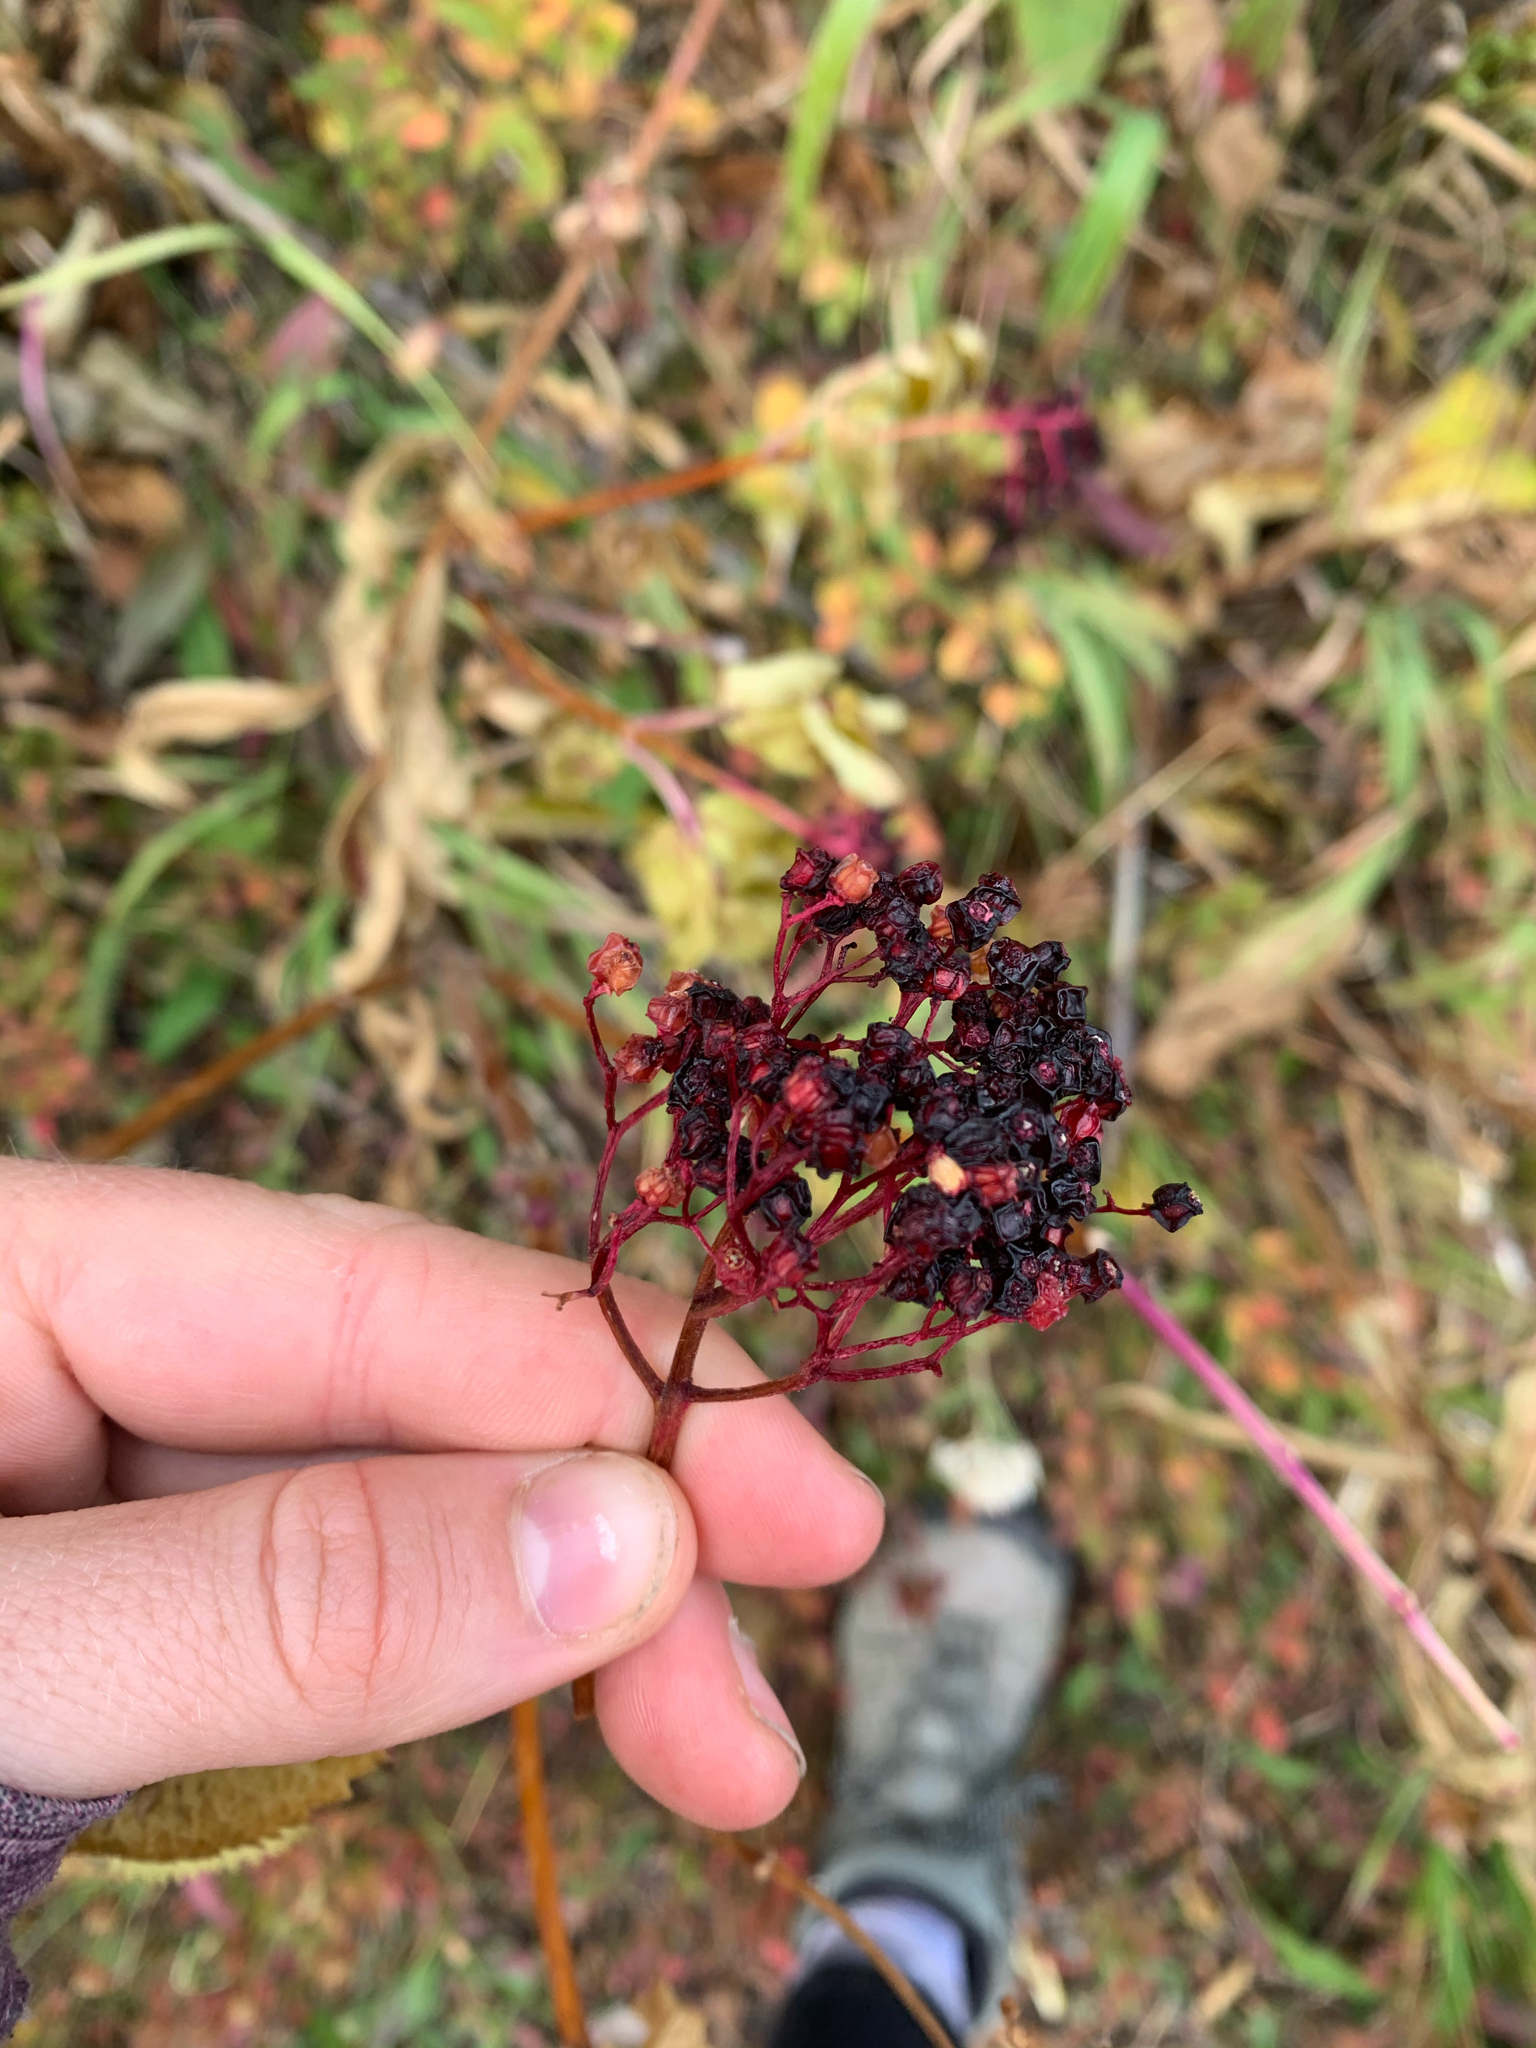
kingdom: Plantae
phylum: Tracheophyta
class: Magnoliopsida
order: Dipsacales
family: Viburnaceae
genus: Sambucus
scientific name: Sambucus racemosa
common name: Red-berried elder
